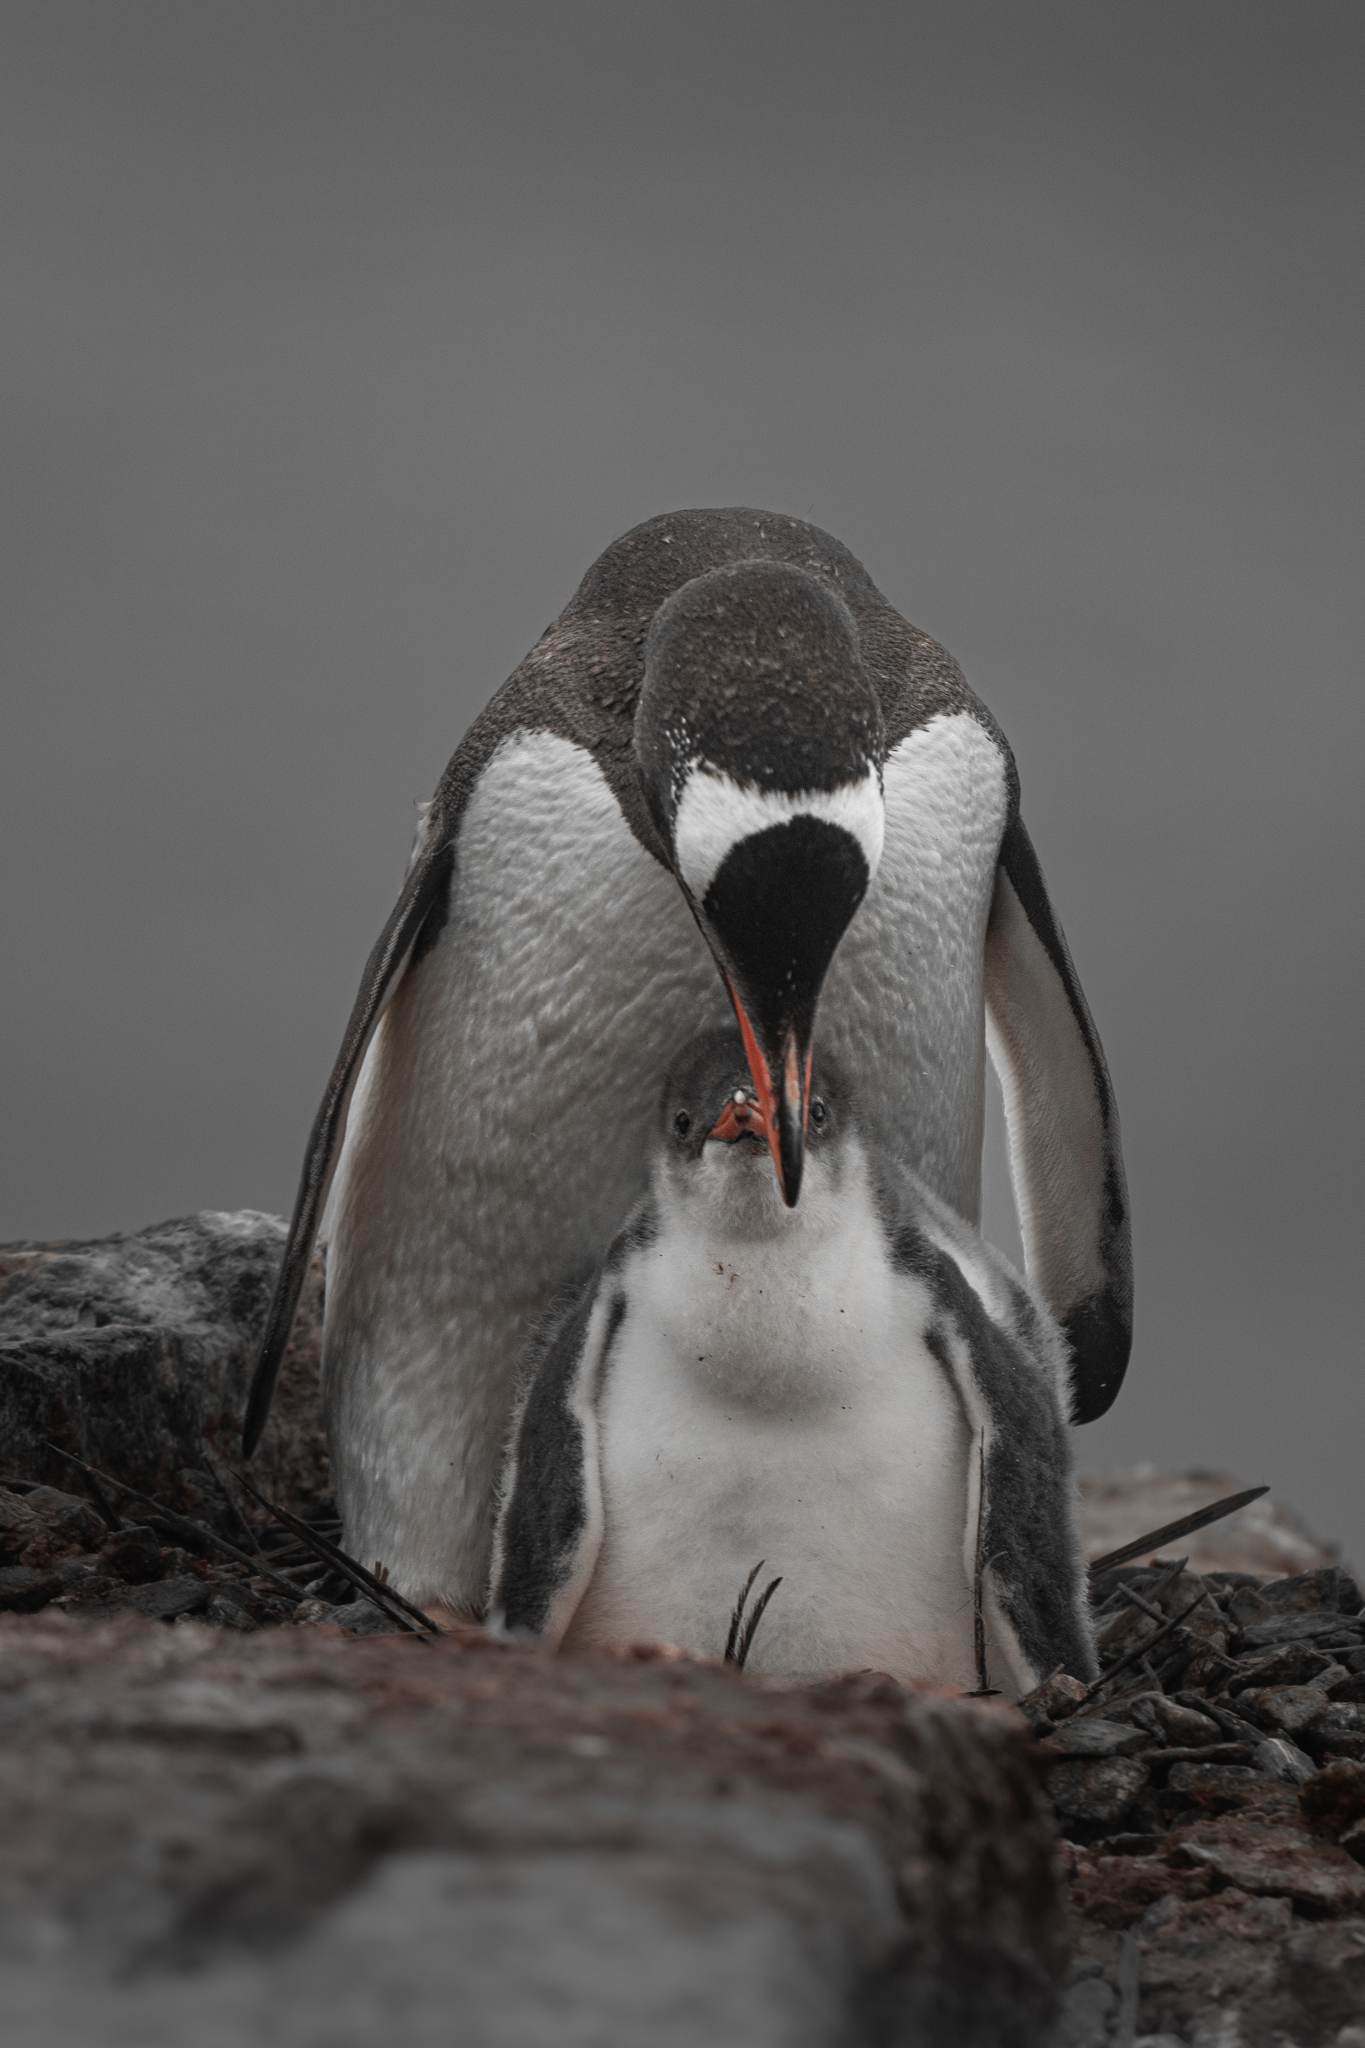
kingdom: Animalia
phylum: Chordata
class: Aves
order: Sphenisciformes
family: Spheniscidae
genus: Pygoscelis
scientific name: Pygoscelis papua
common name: Gentoo penguin
